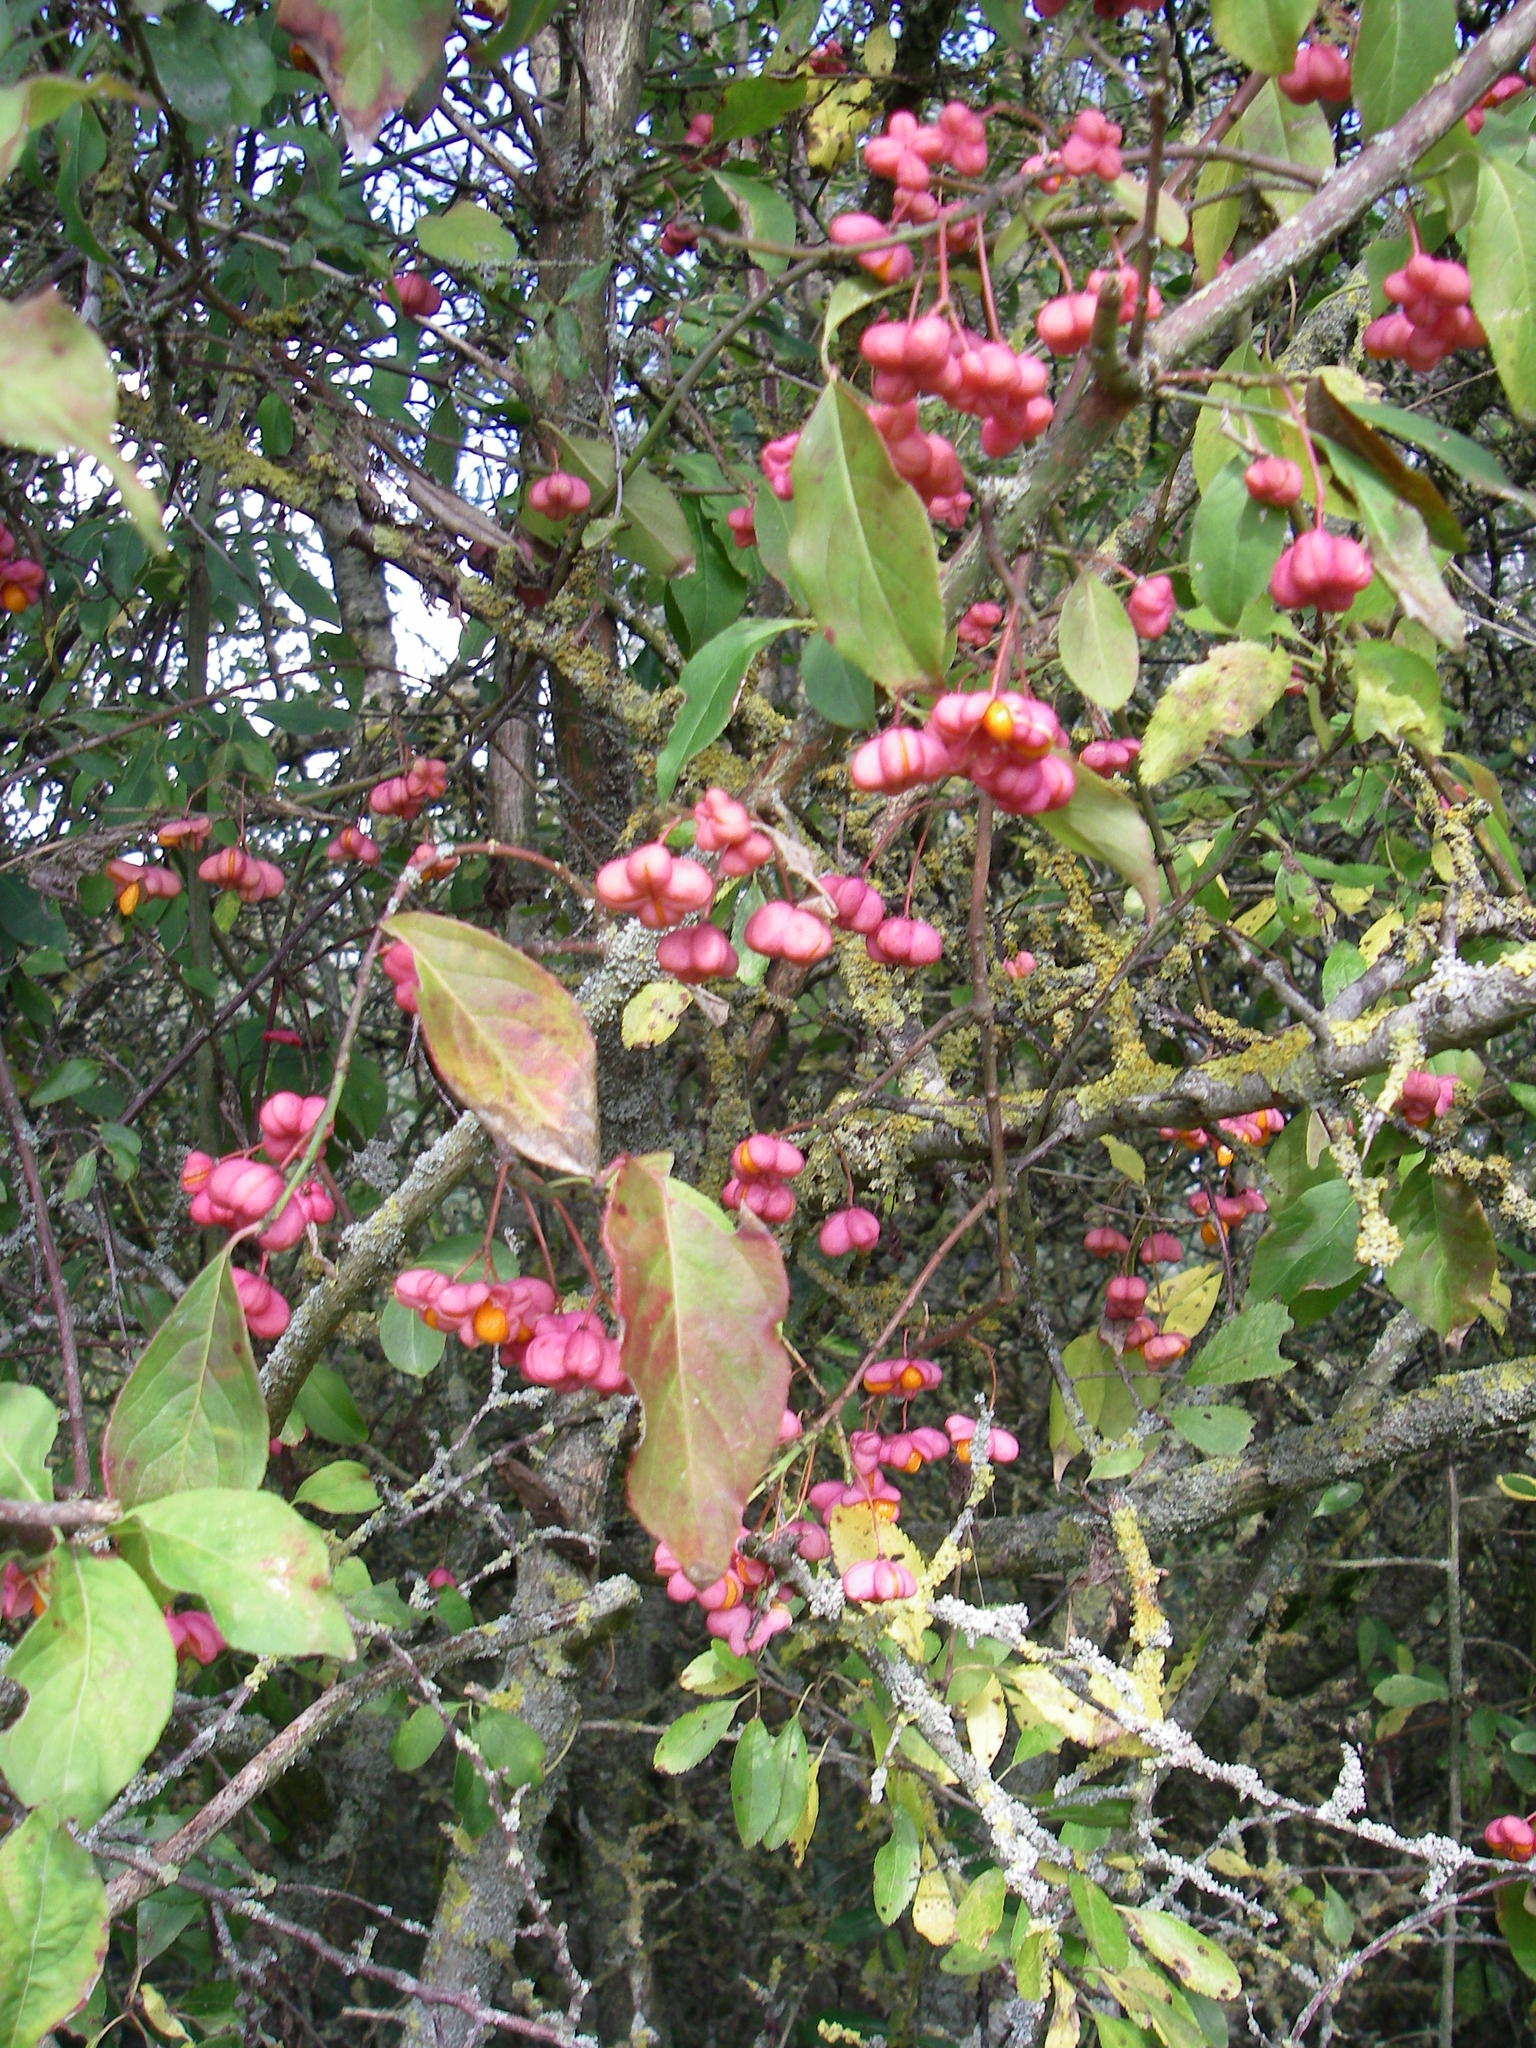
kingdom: Plantae
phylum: Tracheophyta
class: Magnoliopsida
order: Celastrales
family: Celastraceae
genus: Euonymus
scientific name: Euonymus europaeus
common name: Spindle
